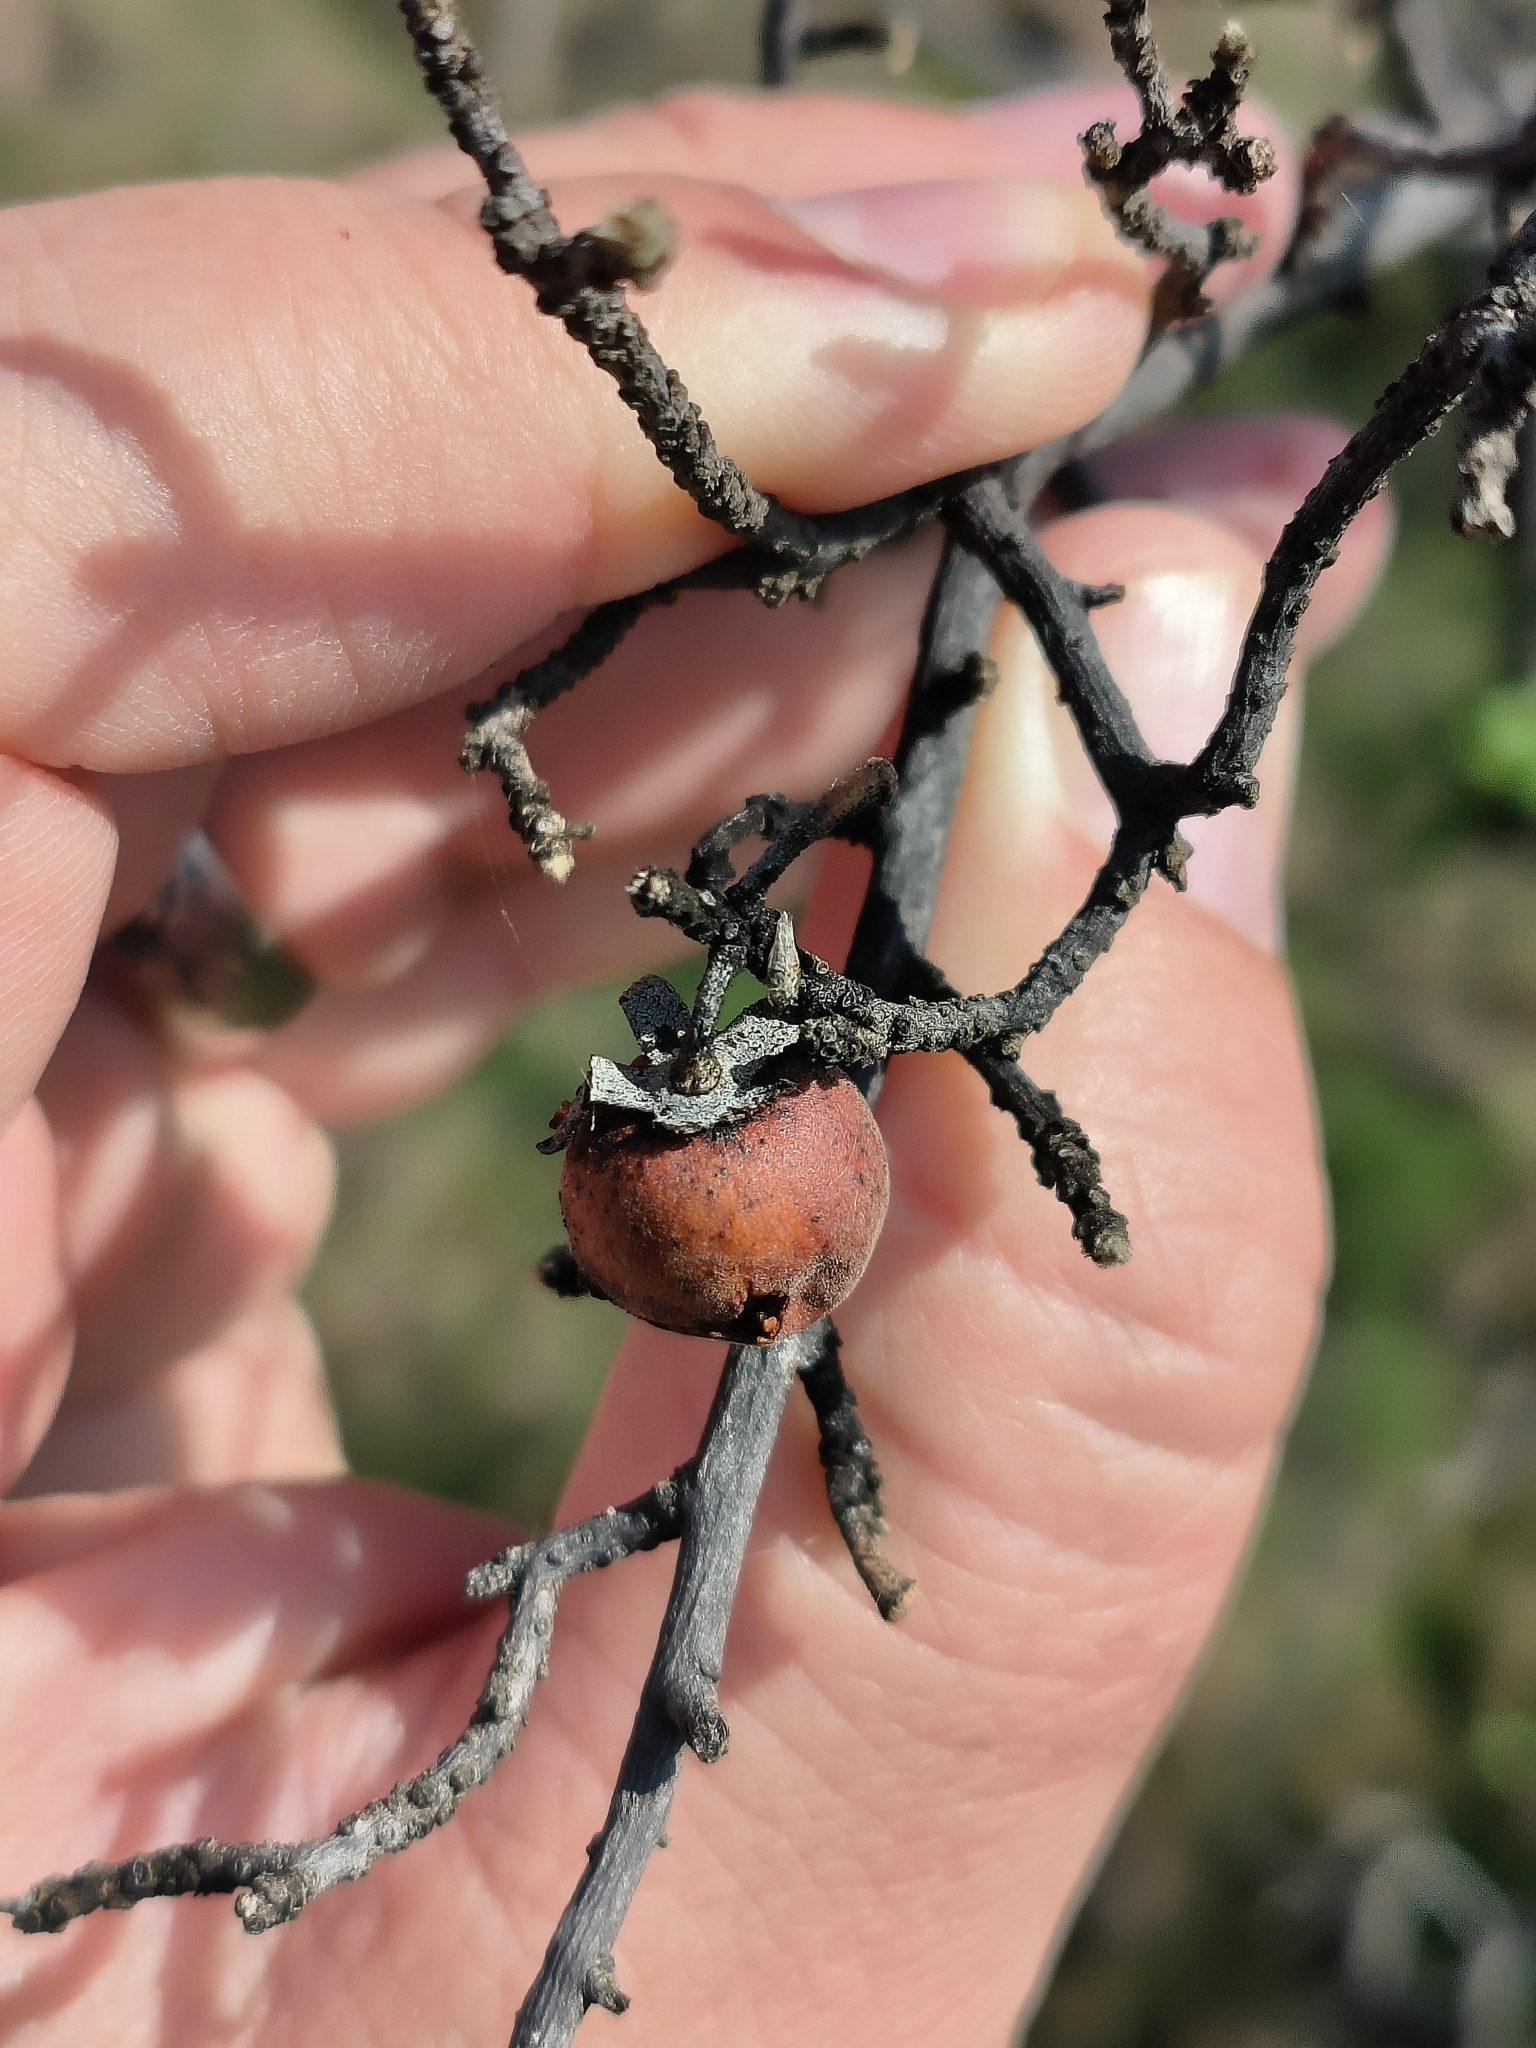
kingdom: Plantae
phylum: Tracheophyta
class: Magnoliopsida
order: Ericales
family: Ebenaceae
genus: Diospyros
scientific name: Diospyros lycioides
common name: Red star apple
